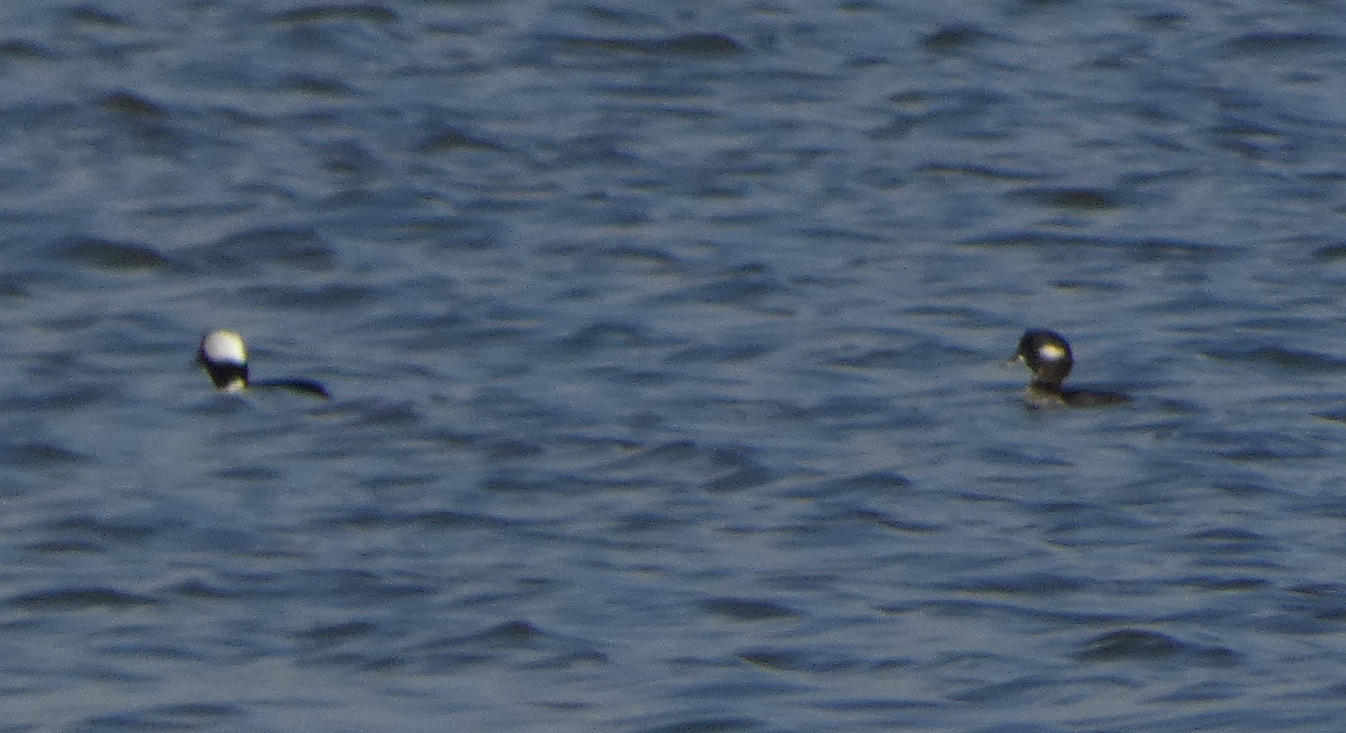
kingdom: Animalia
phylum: Chordata
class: Aves
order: Anseriformes
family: Anatidae
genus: Bucephala
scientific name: Bucephala albeola
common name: Bufflehead
